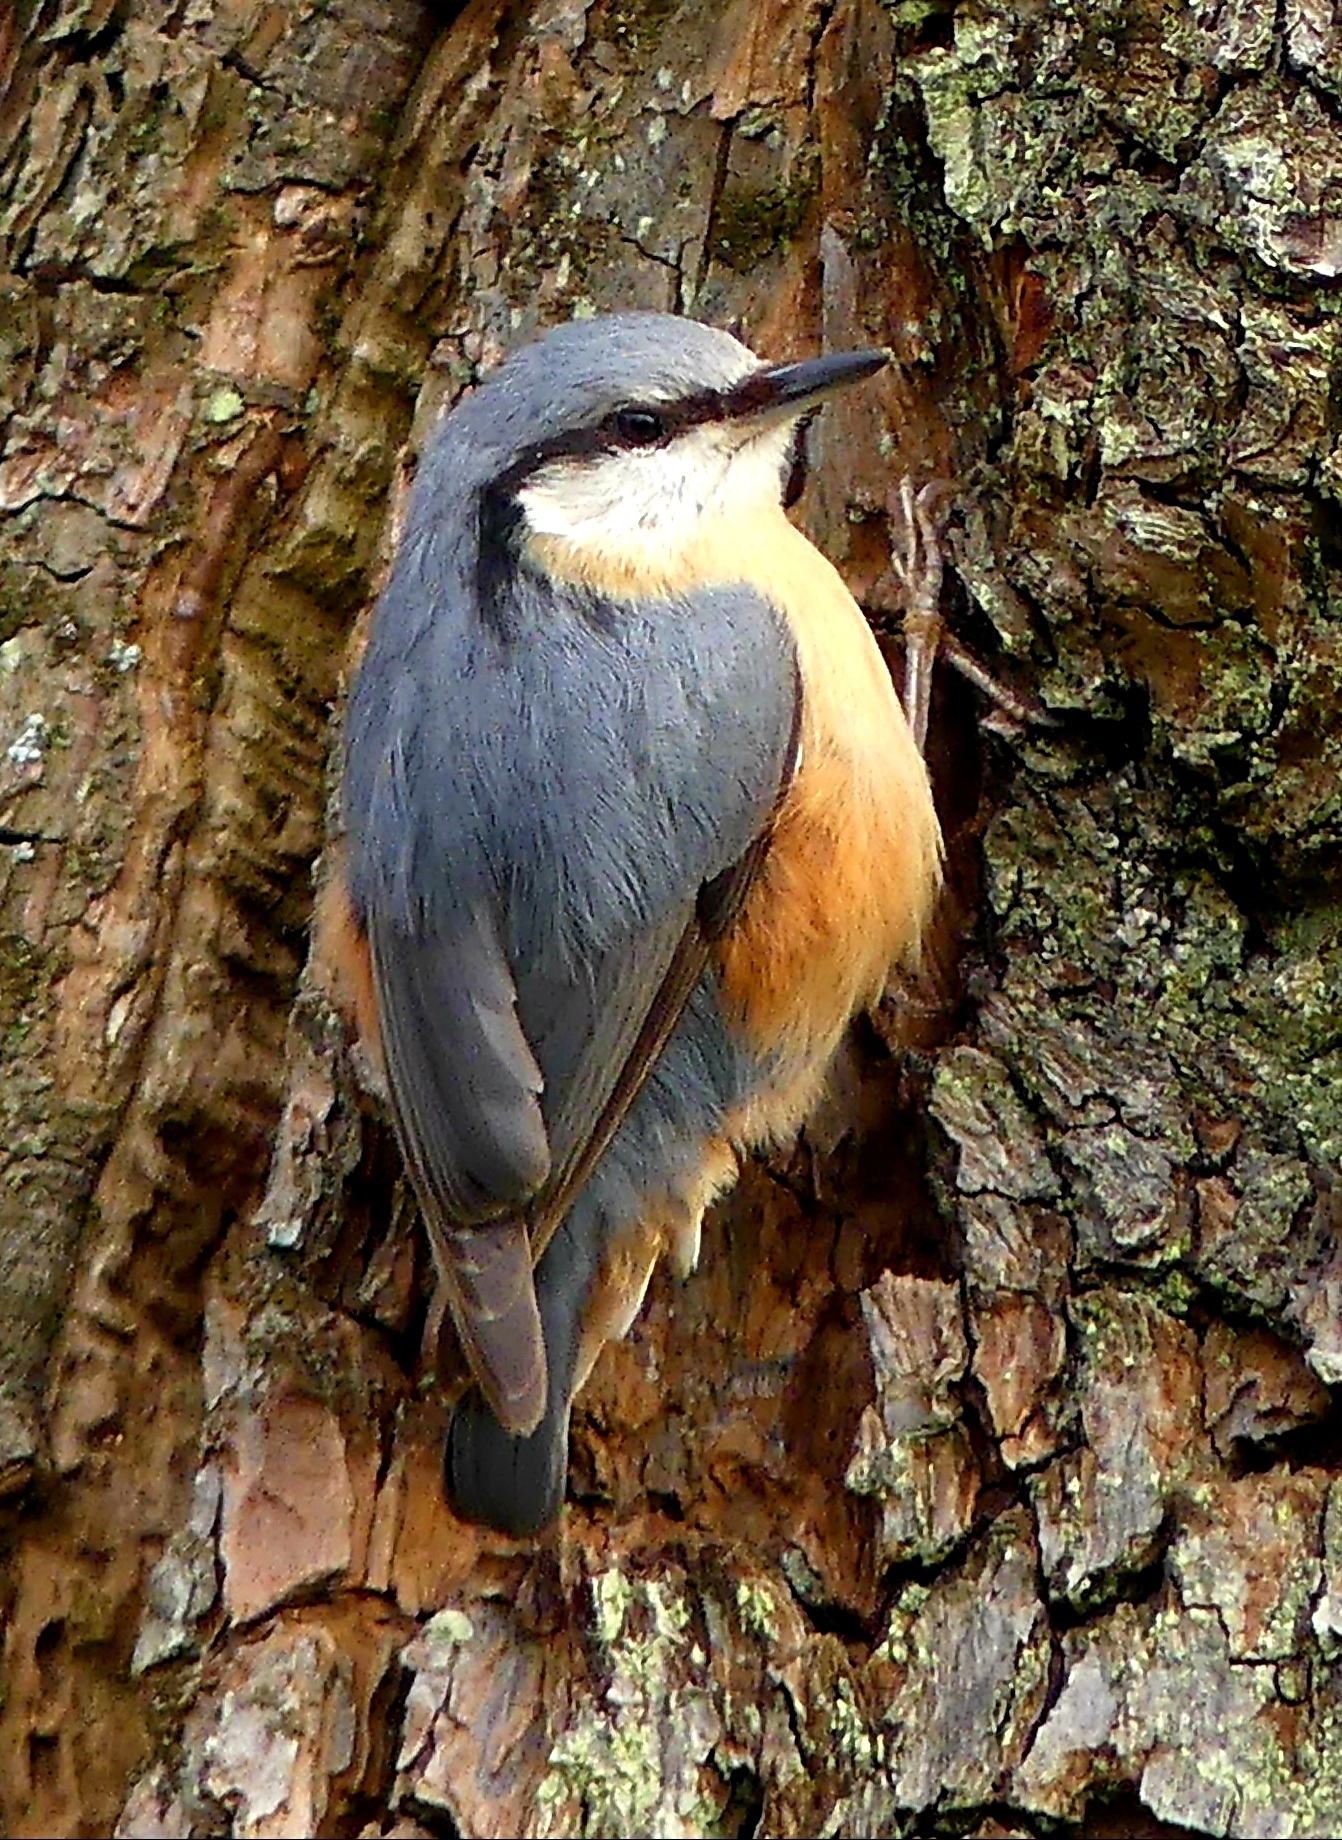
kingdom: Animalia
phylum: Chordata
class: Aves
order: Passeriformes
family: Sittidae
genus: Sitta
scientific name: Sitta europaea
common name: Eurasian nuthatch
